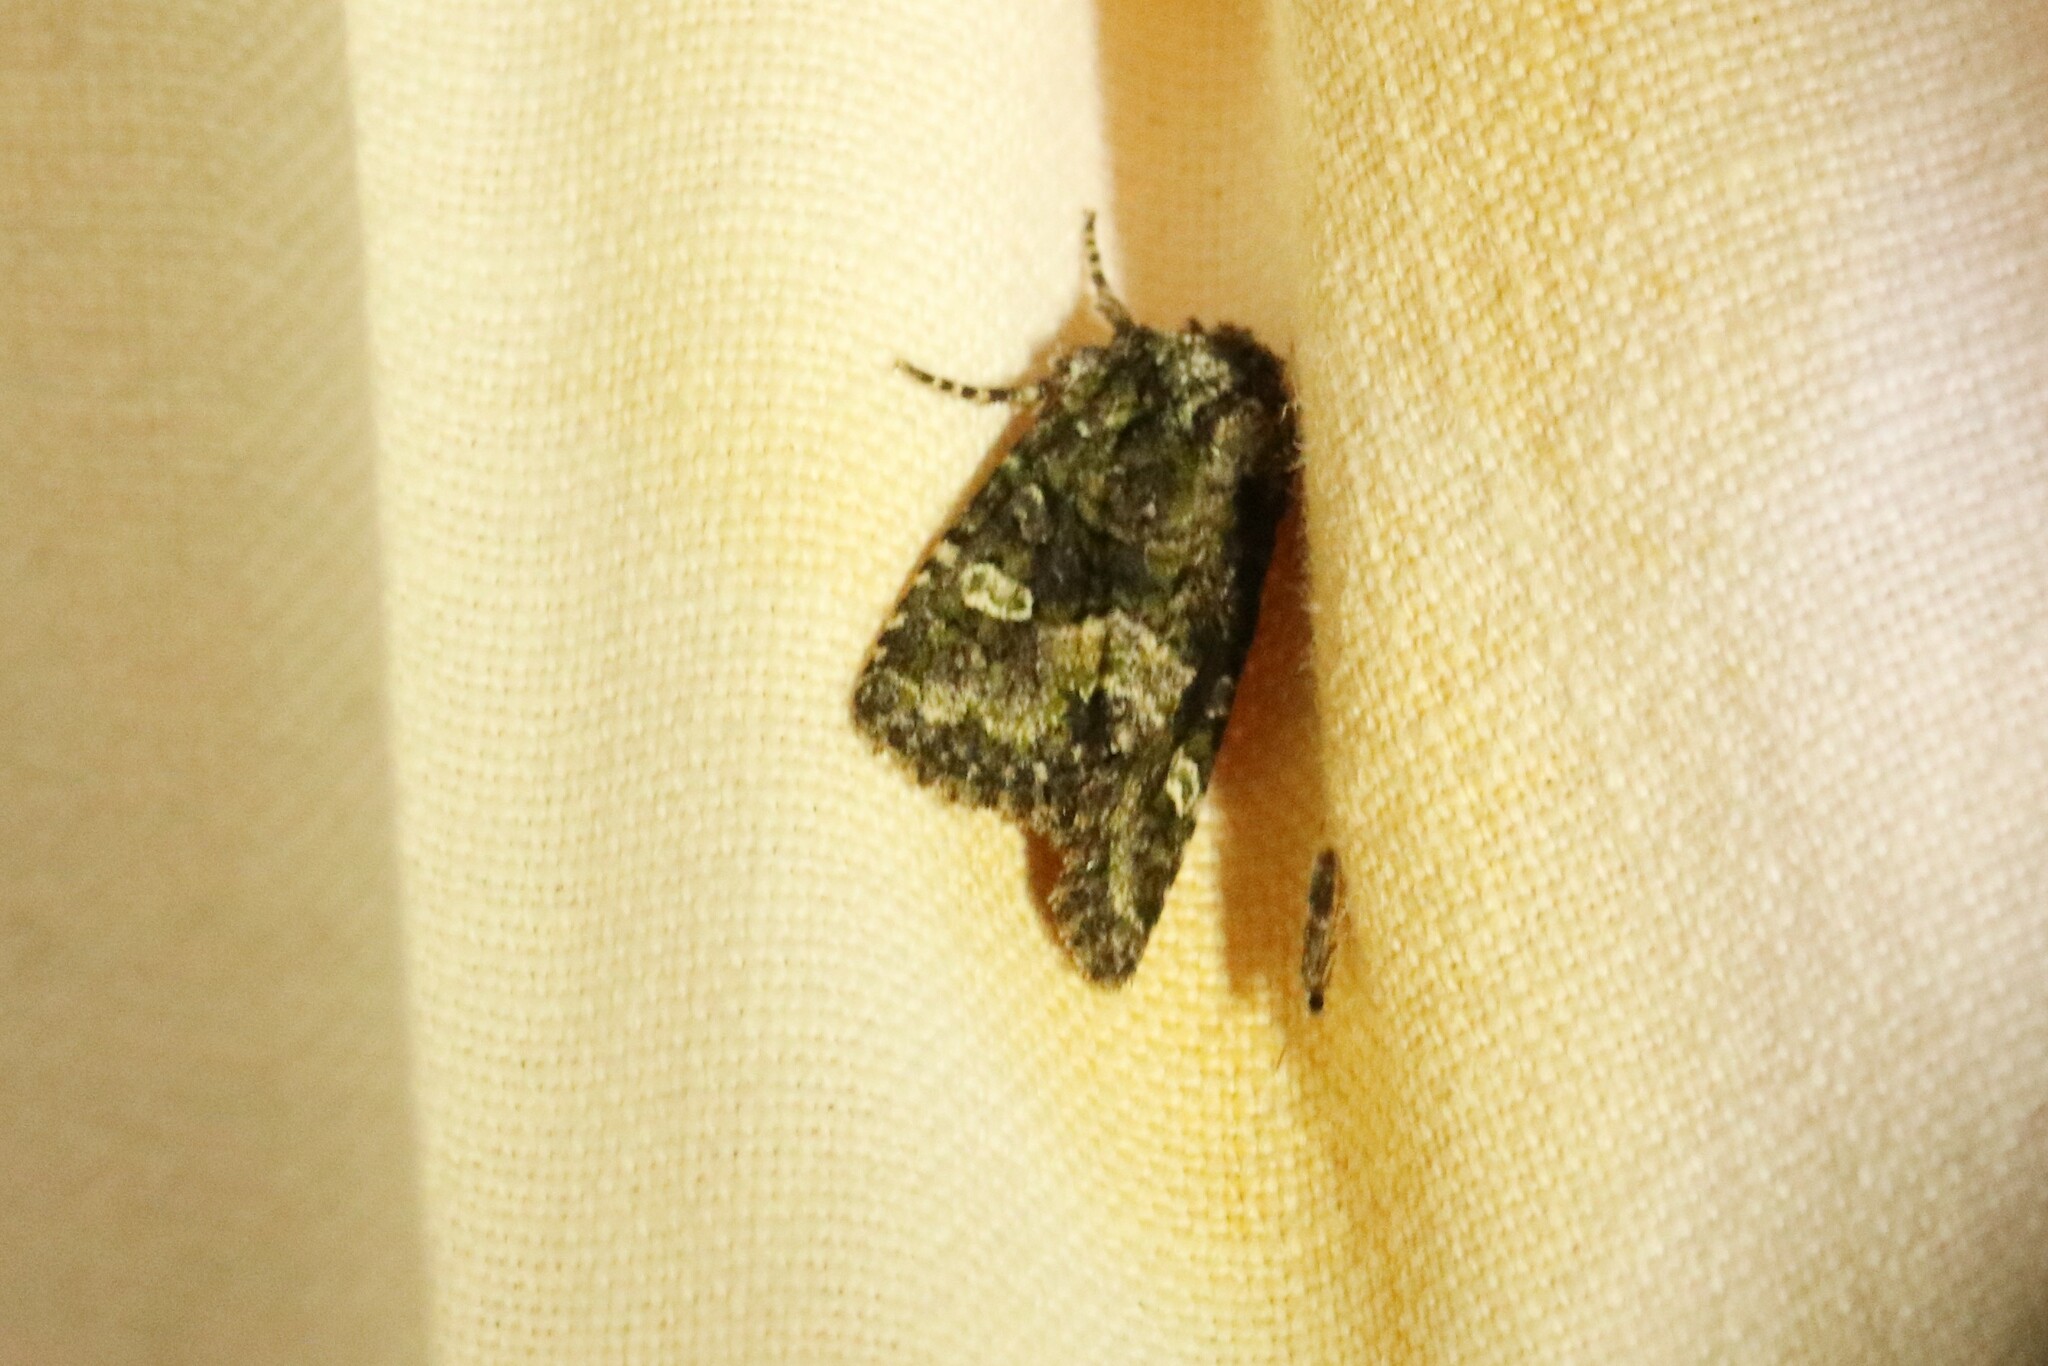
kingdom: Animalia
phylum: Arthropoda
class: Insecta
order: Lepidoptera
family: Noctuidae
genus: Lacinipolia
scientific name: Lacinipolia olivacea
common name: Olive arches moth
